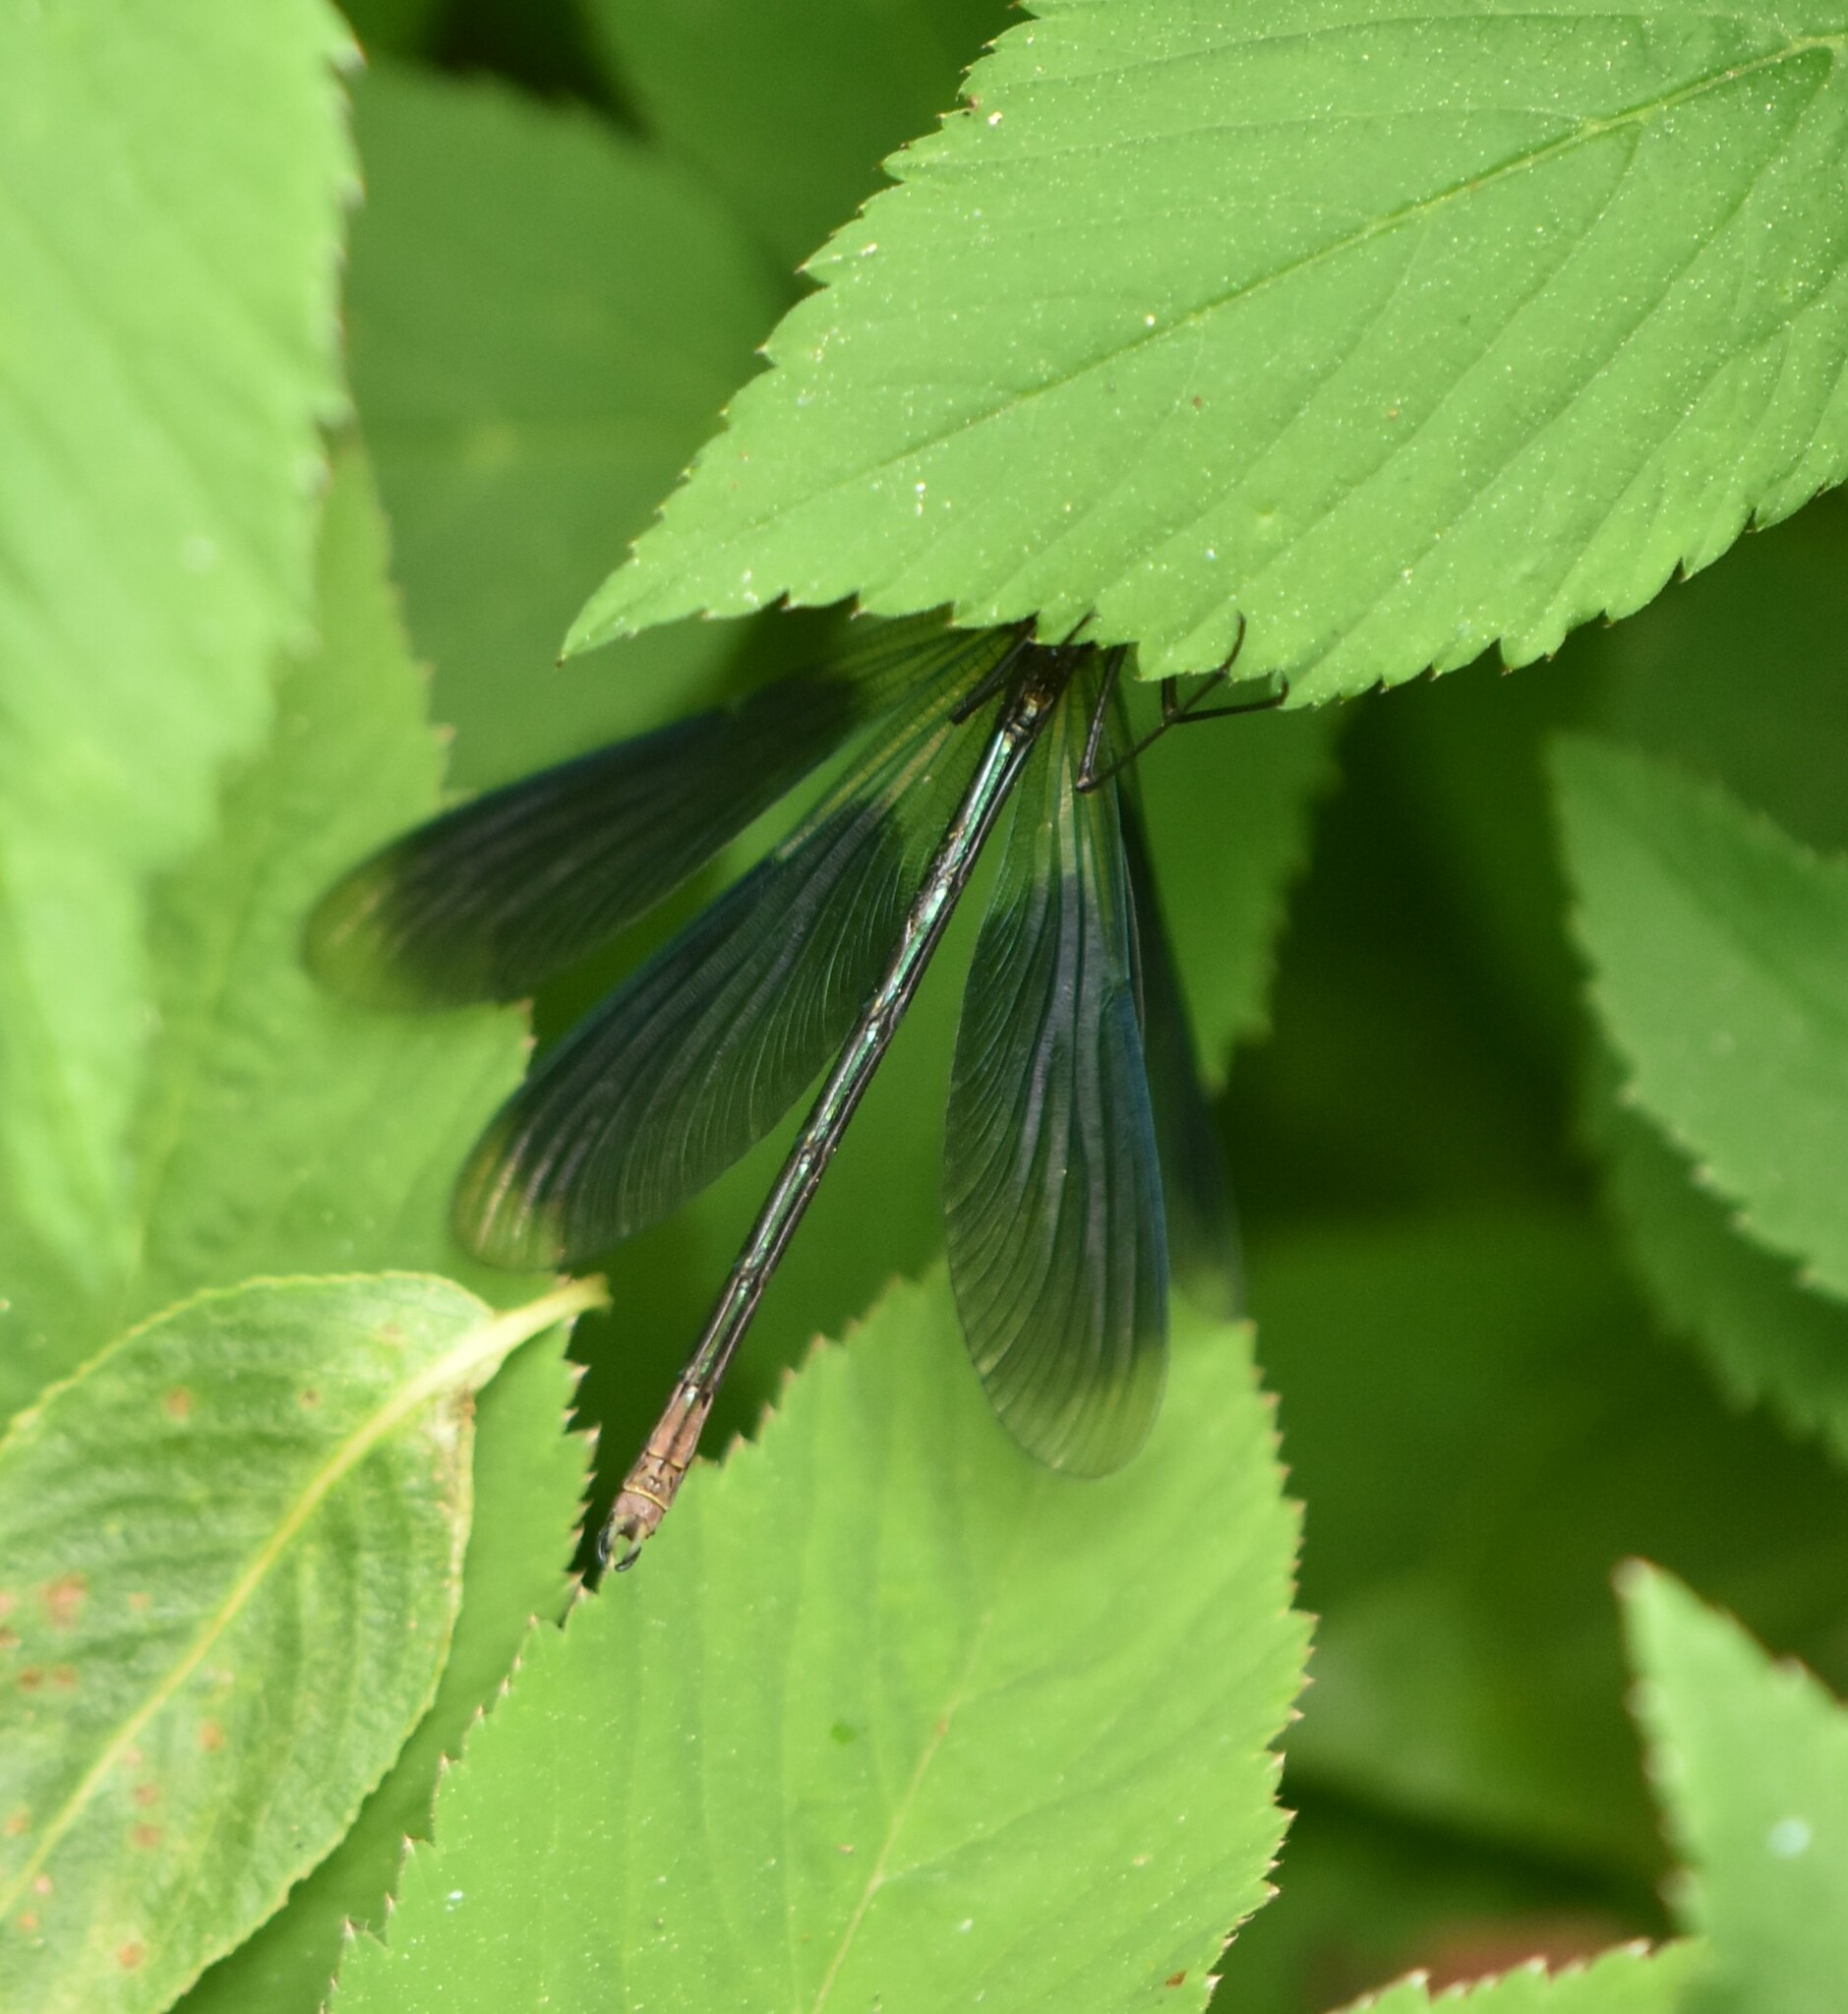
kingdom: Animalia
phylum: Arthropoda
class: Insecta
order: Odonata
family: Calopterygidae
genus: Calopteryx
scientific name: Calopteryx splendens
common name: Banded demoiselle
